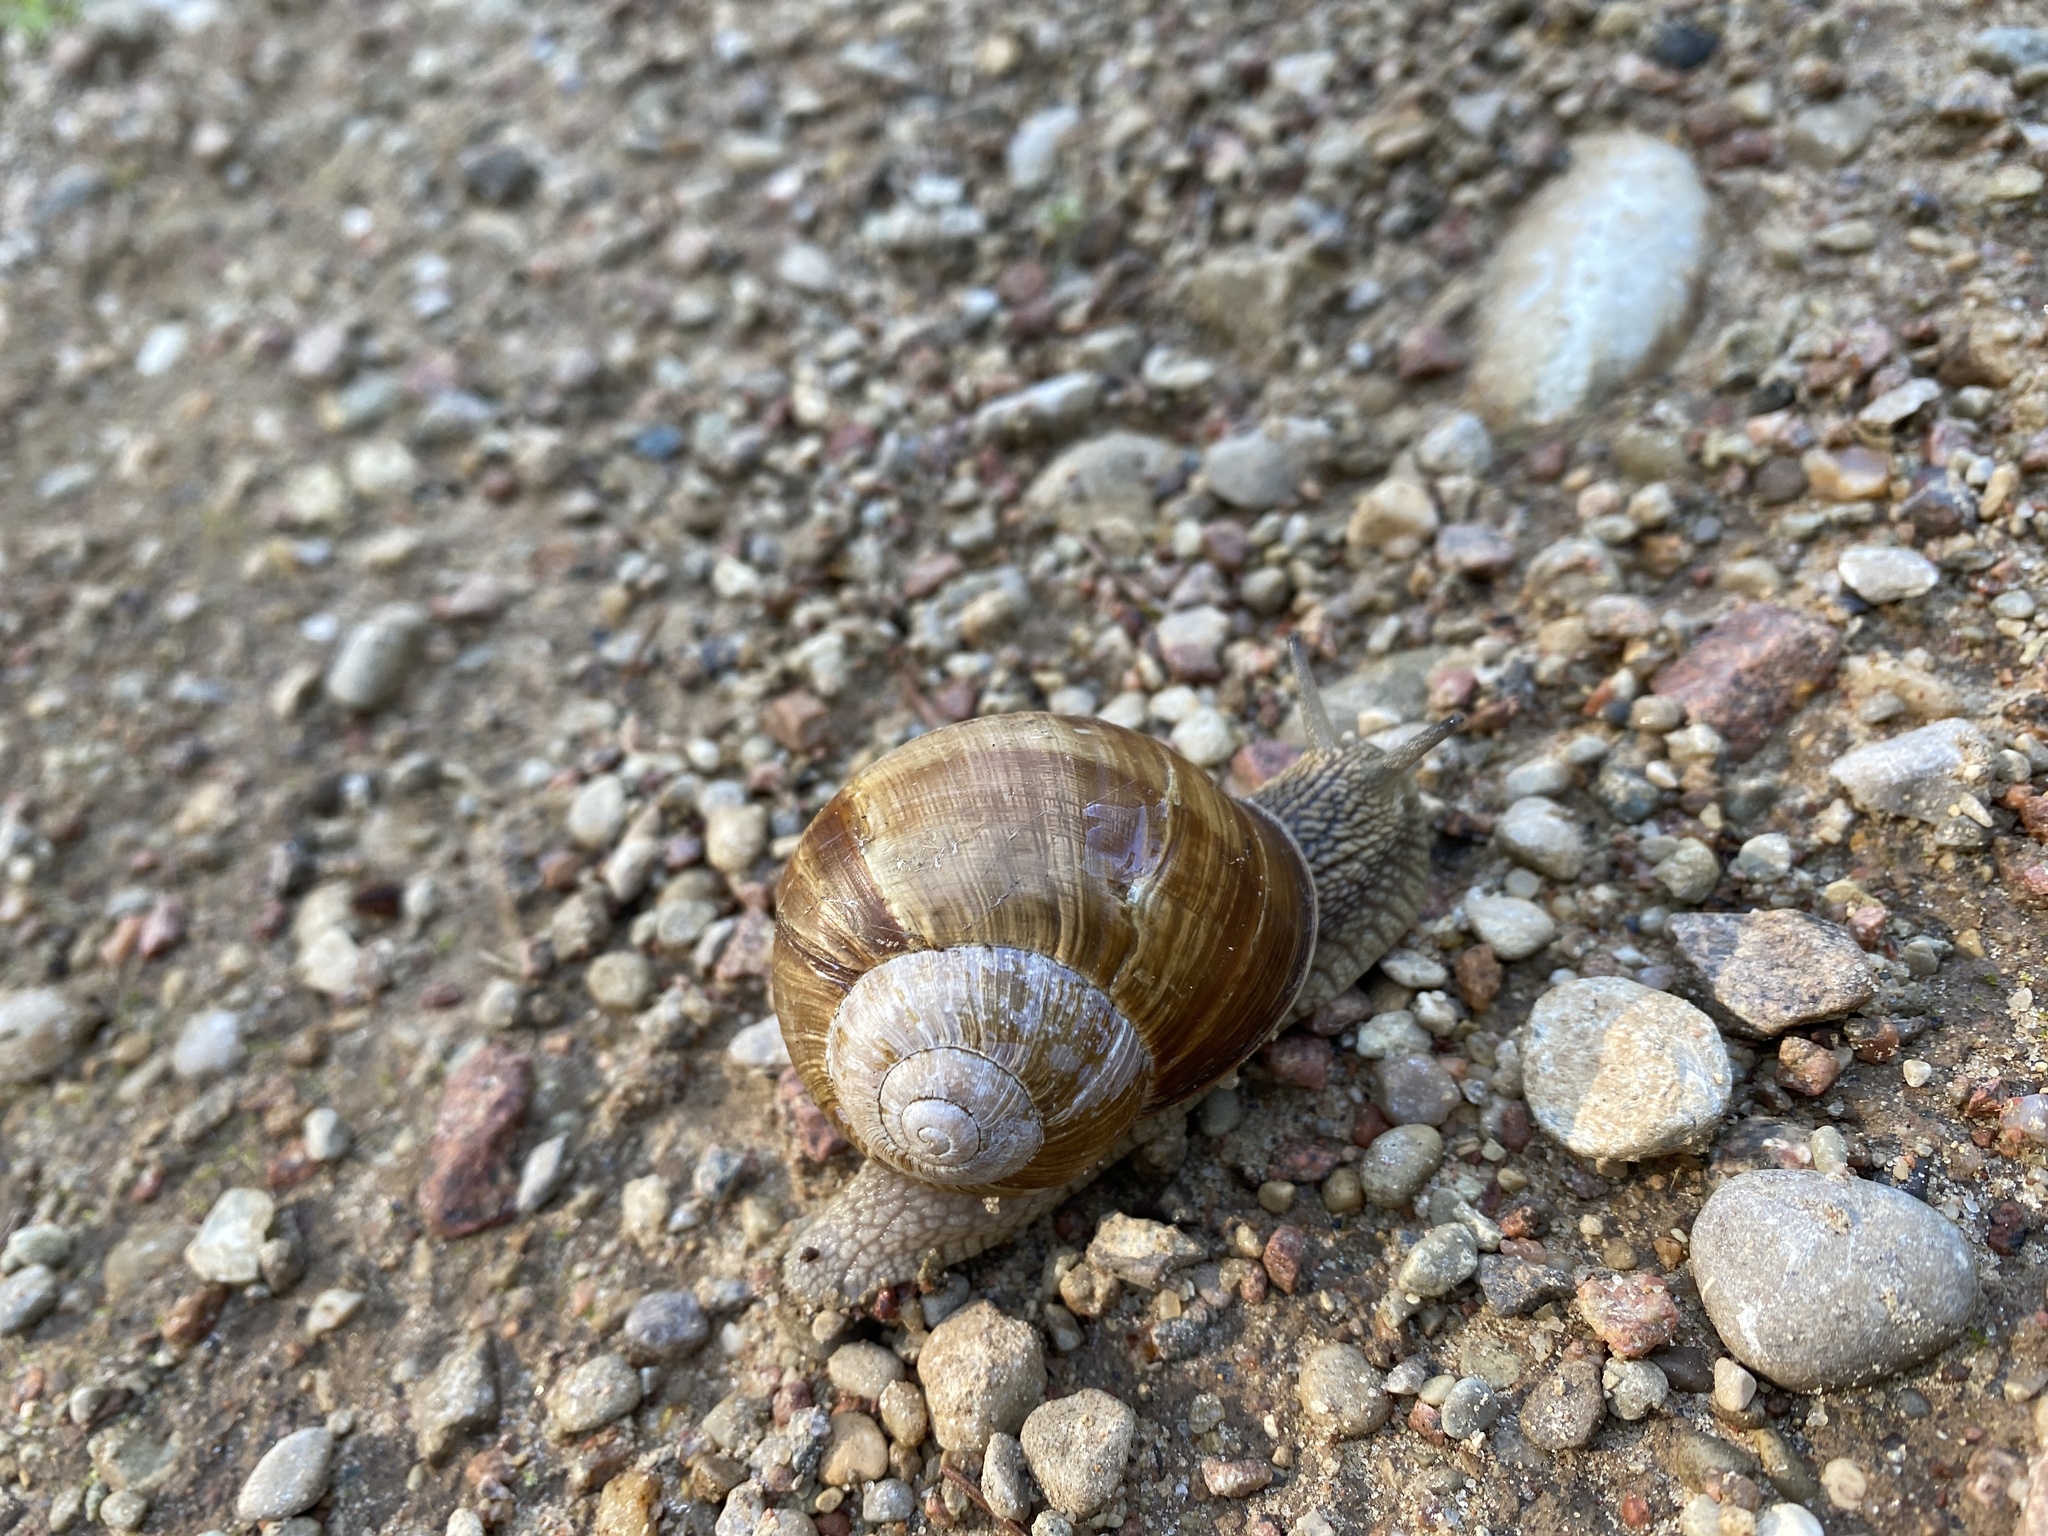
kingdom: Animalia
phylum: Mollusca
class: Gastropoda
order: Stylommatophora
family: Helicidae
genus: Helix
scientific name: Helix pomatia
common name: Roman snail
